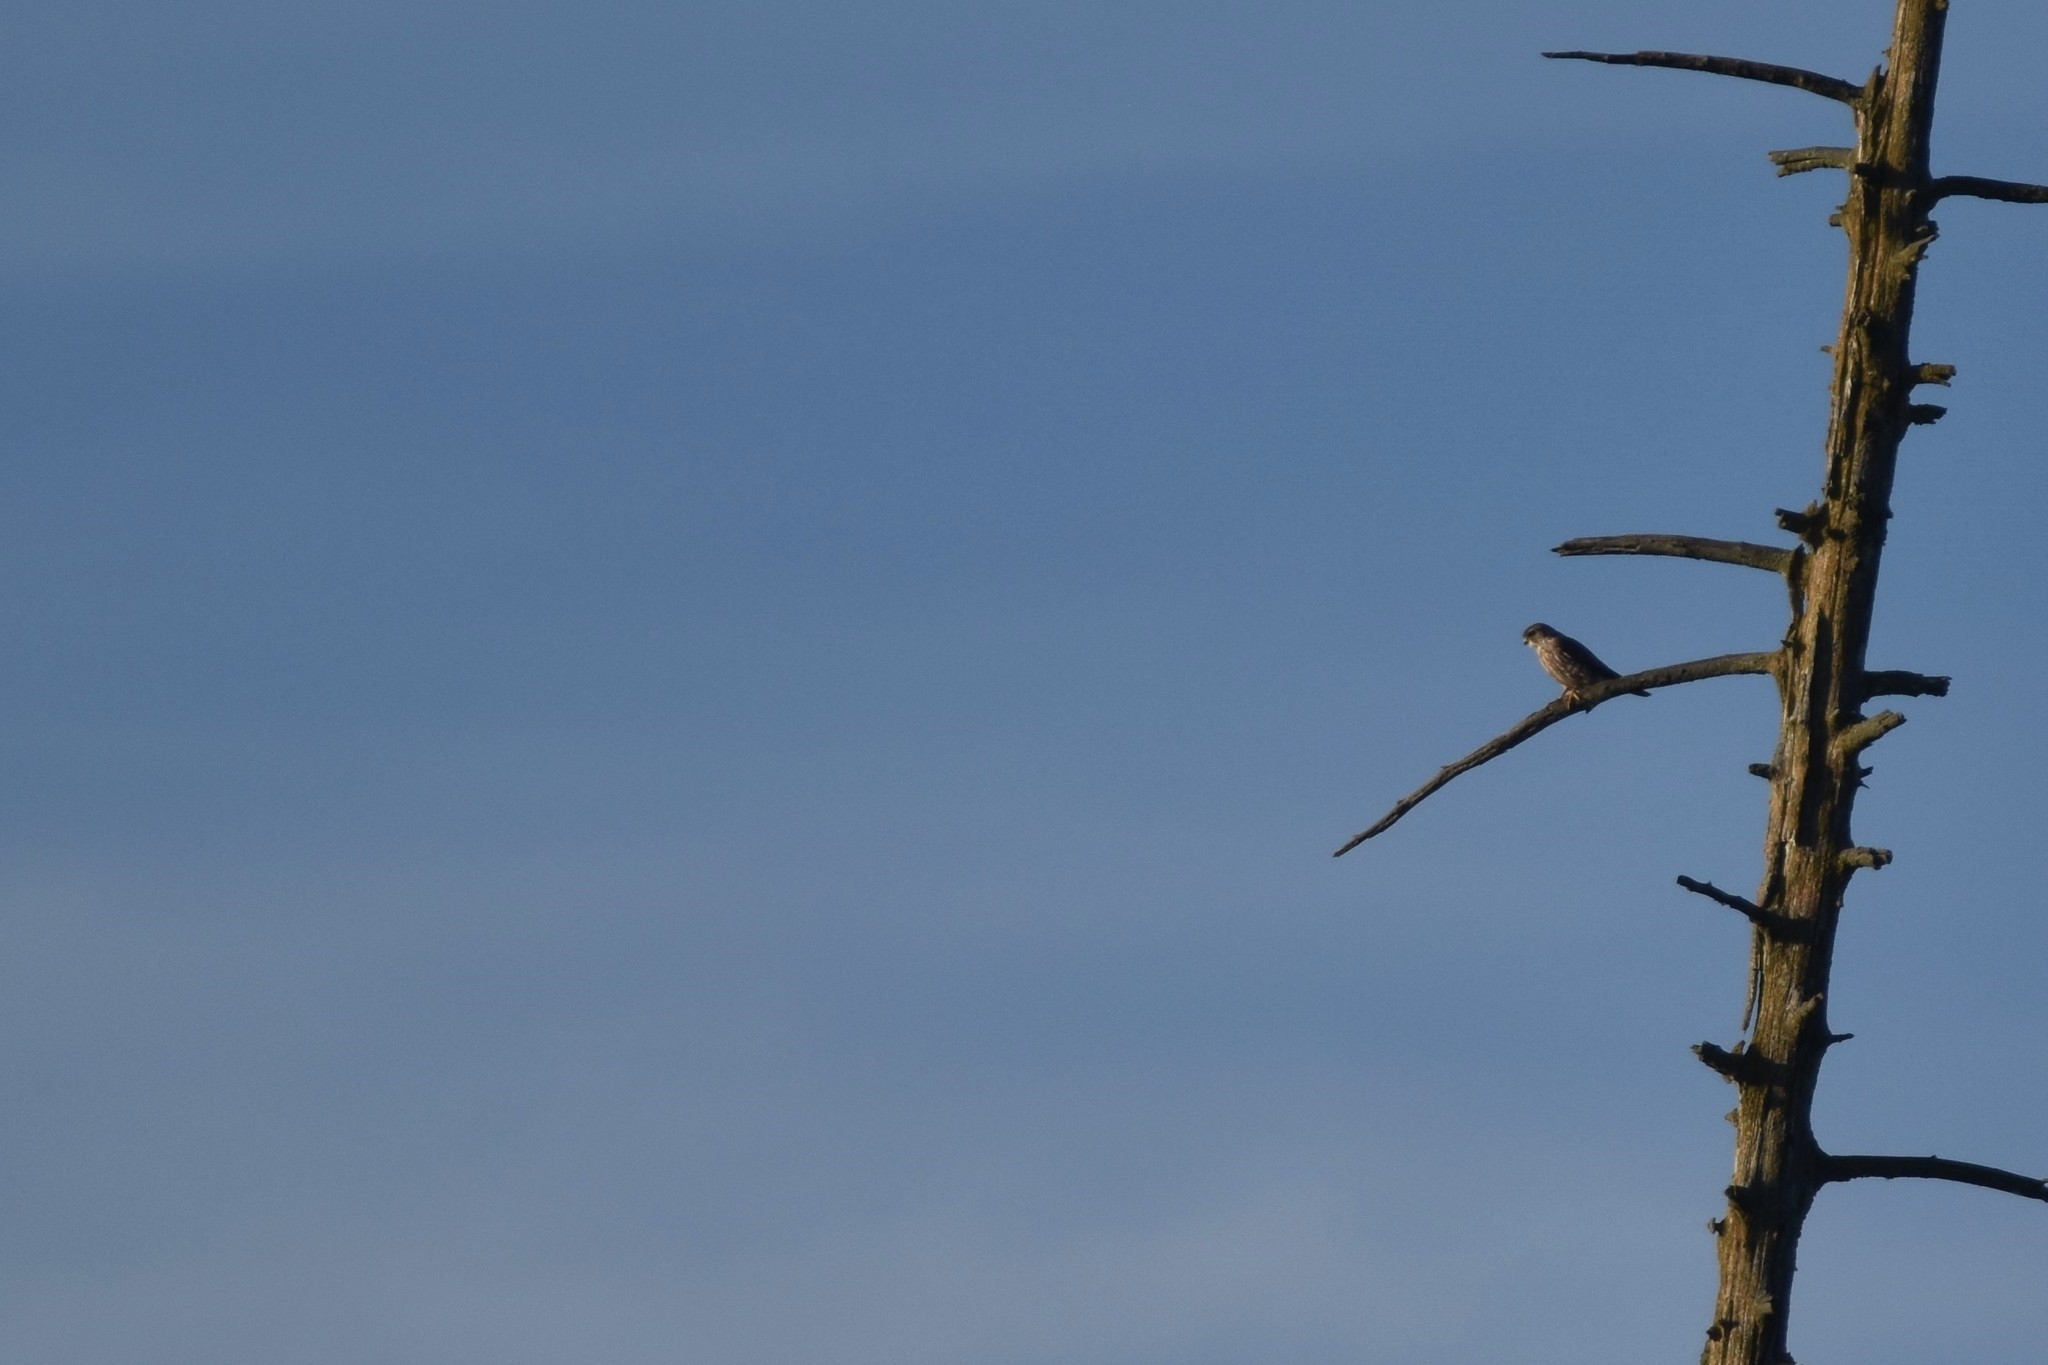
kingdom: Animalia
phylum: Chordata
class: Aves
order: Falconiformes
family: Falconidae
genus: Falco
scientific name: Falco columbarius
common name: Merlin
